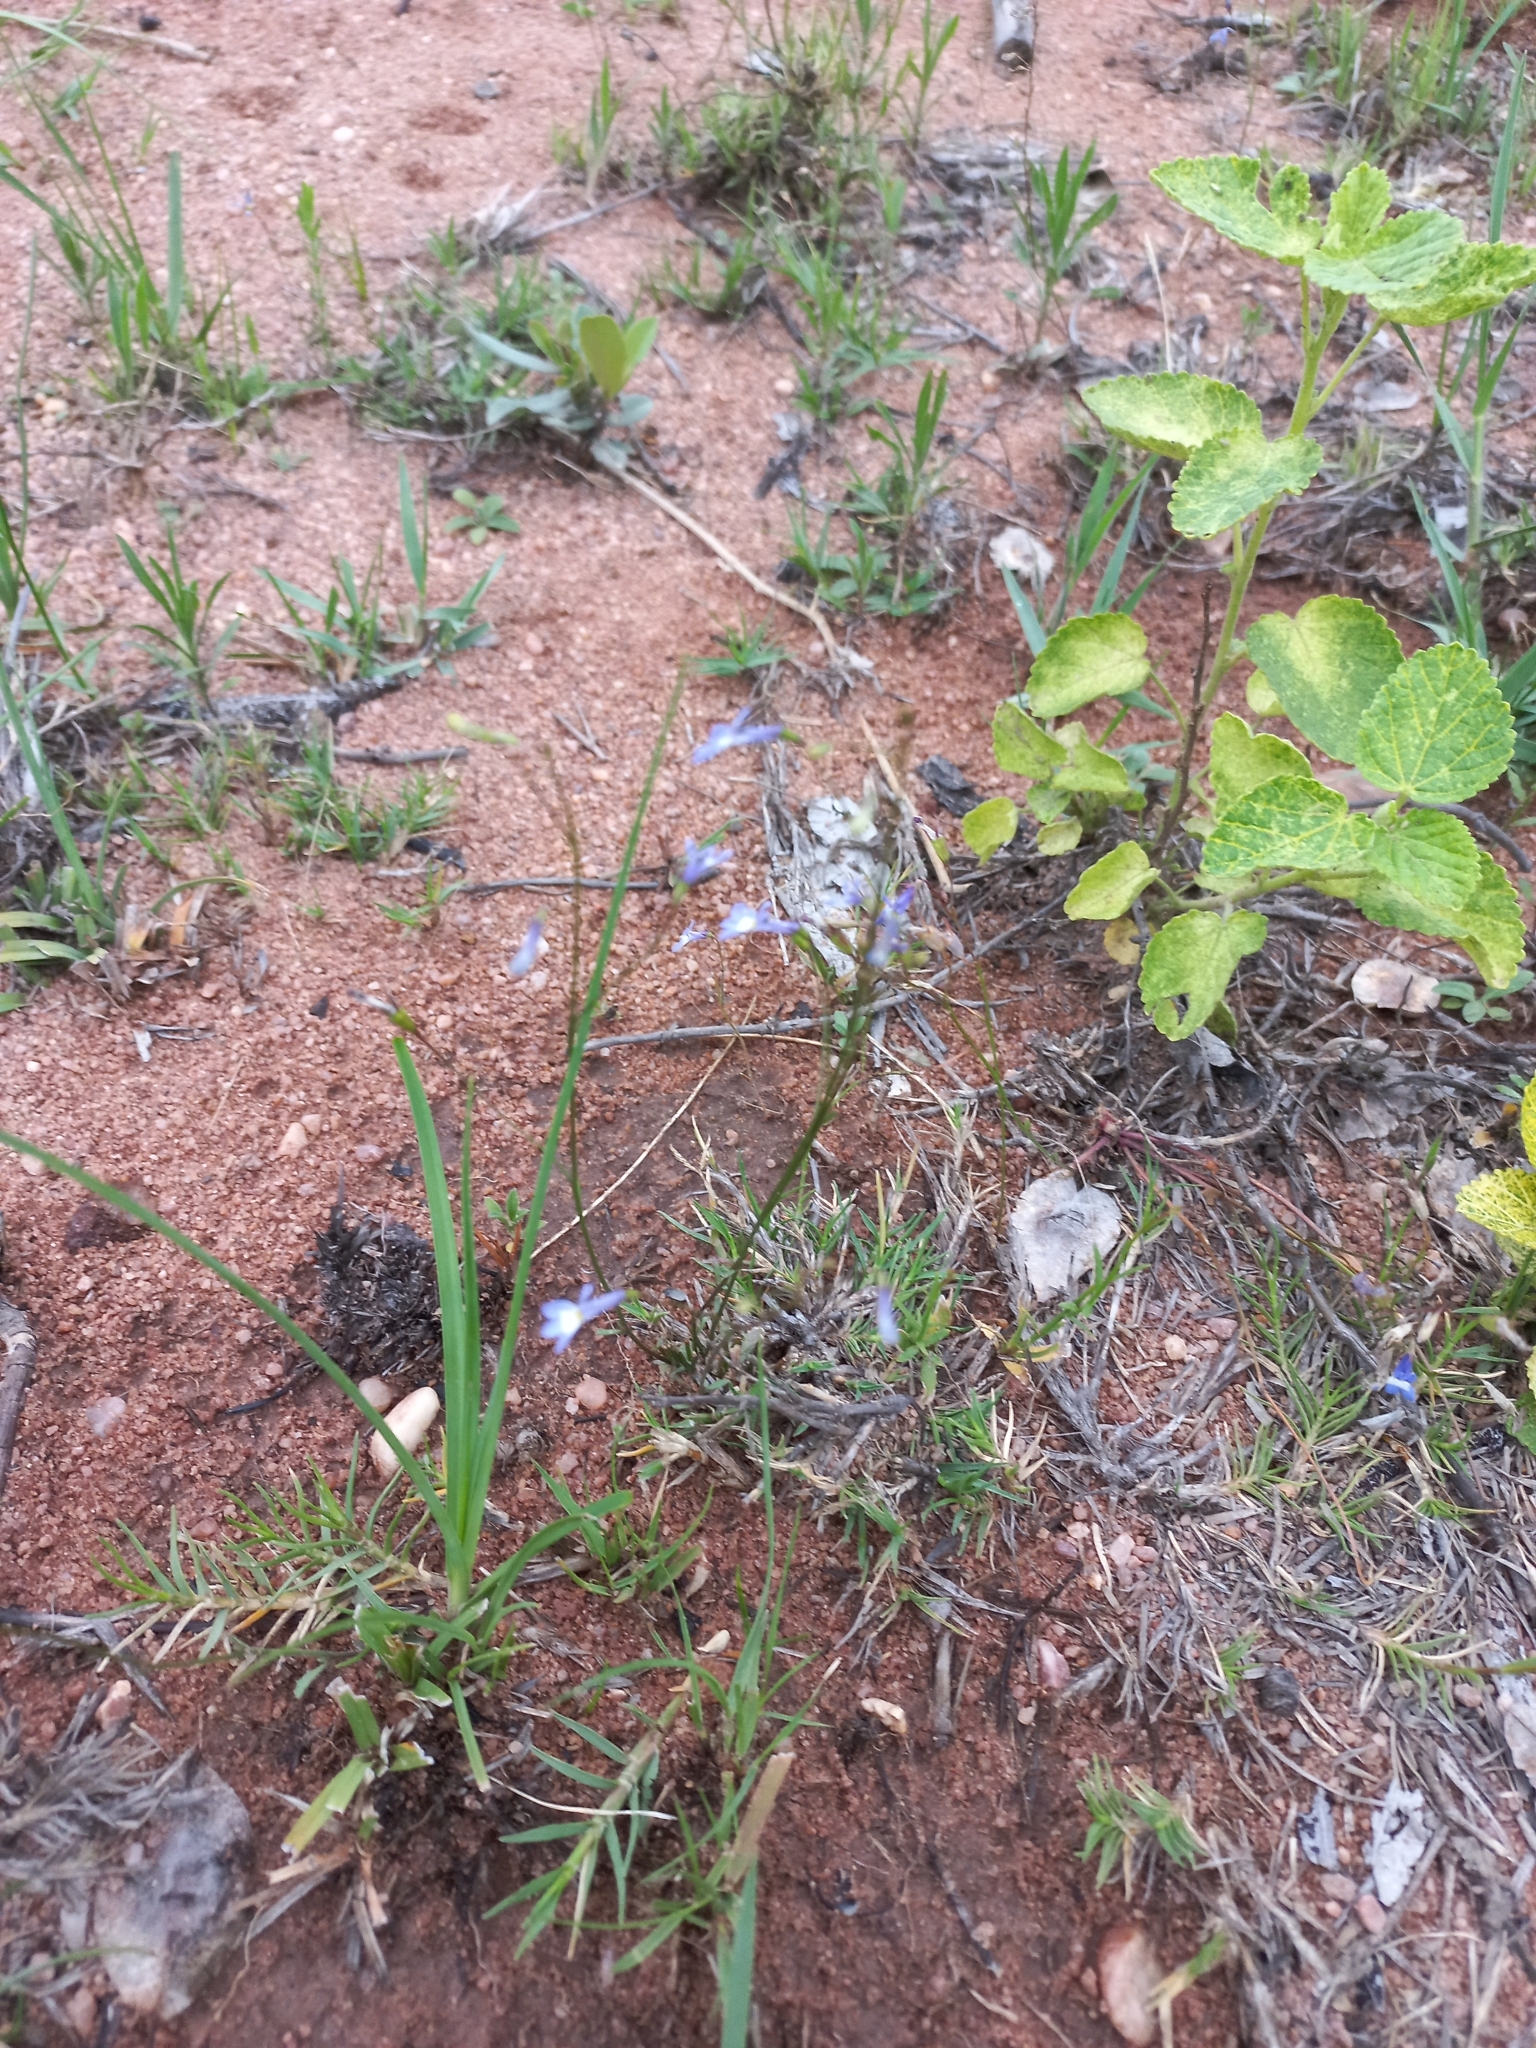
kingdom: Plantae
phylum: Tracheophyta
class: Magnoliopsida
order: Asterales
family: Campanulaceae
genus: Lobelia
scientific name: Lobelia erinus
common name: Edging lobelia
